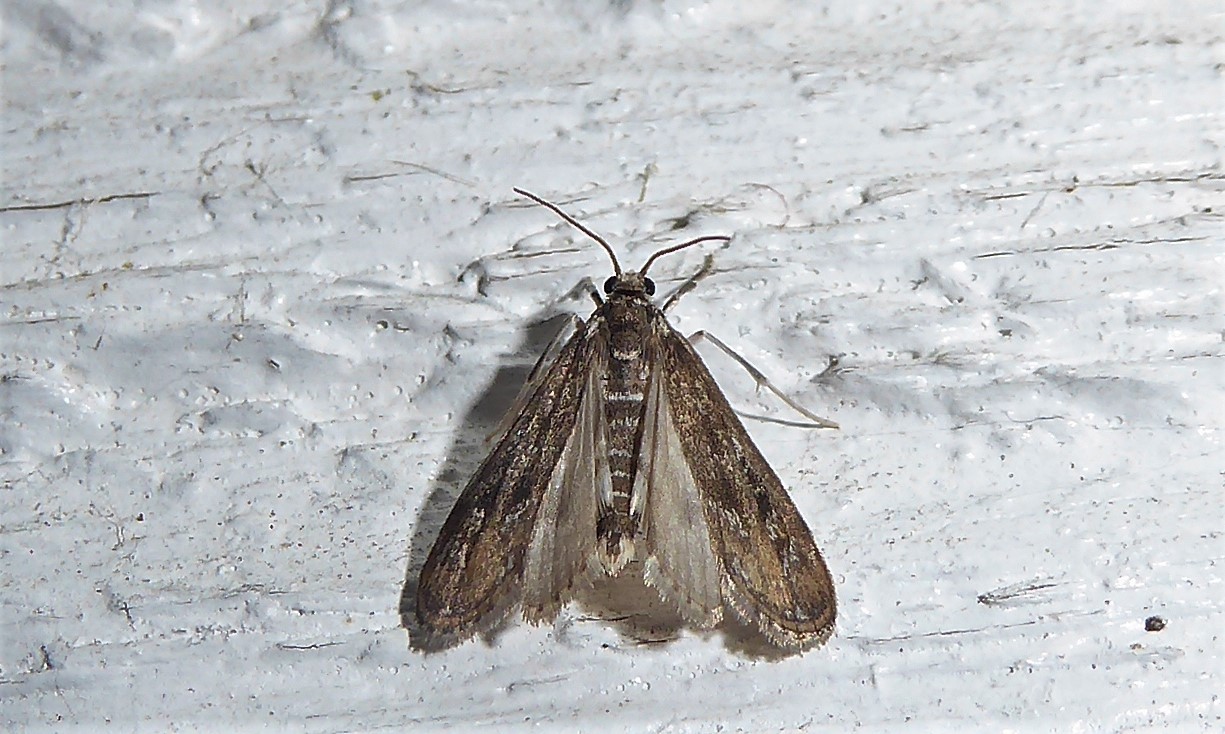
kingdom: Animalia
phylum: Arthropoda
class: Insecta
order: Lepidoptera
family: Crambidae
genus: Hygraula
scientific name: Hygraula nitens
